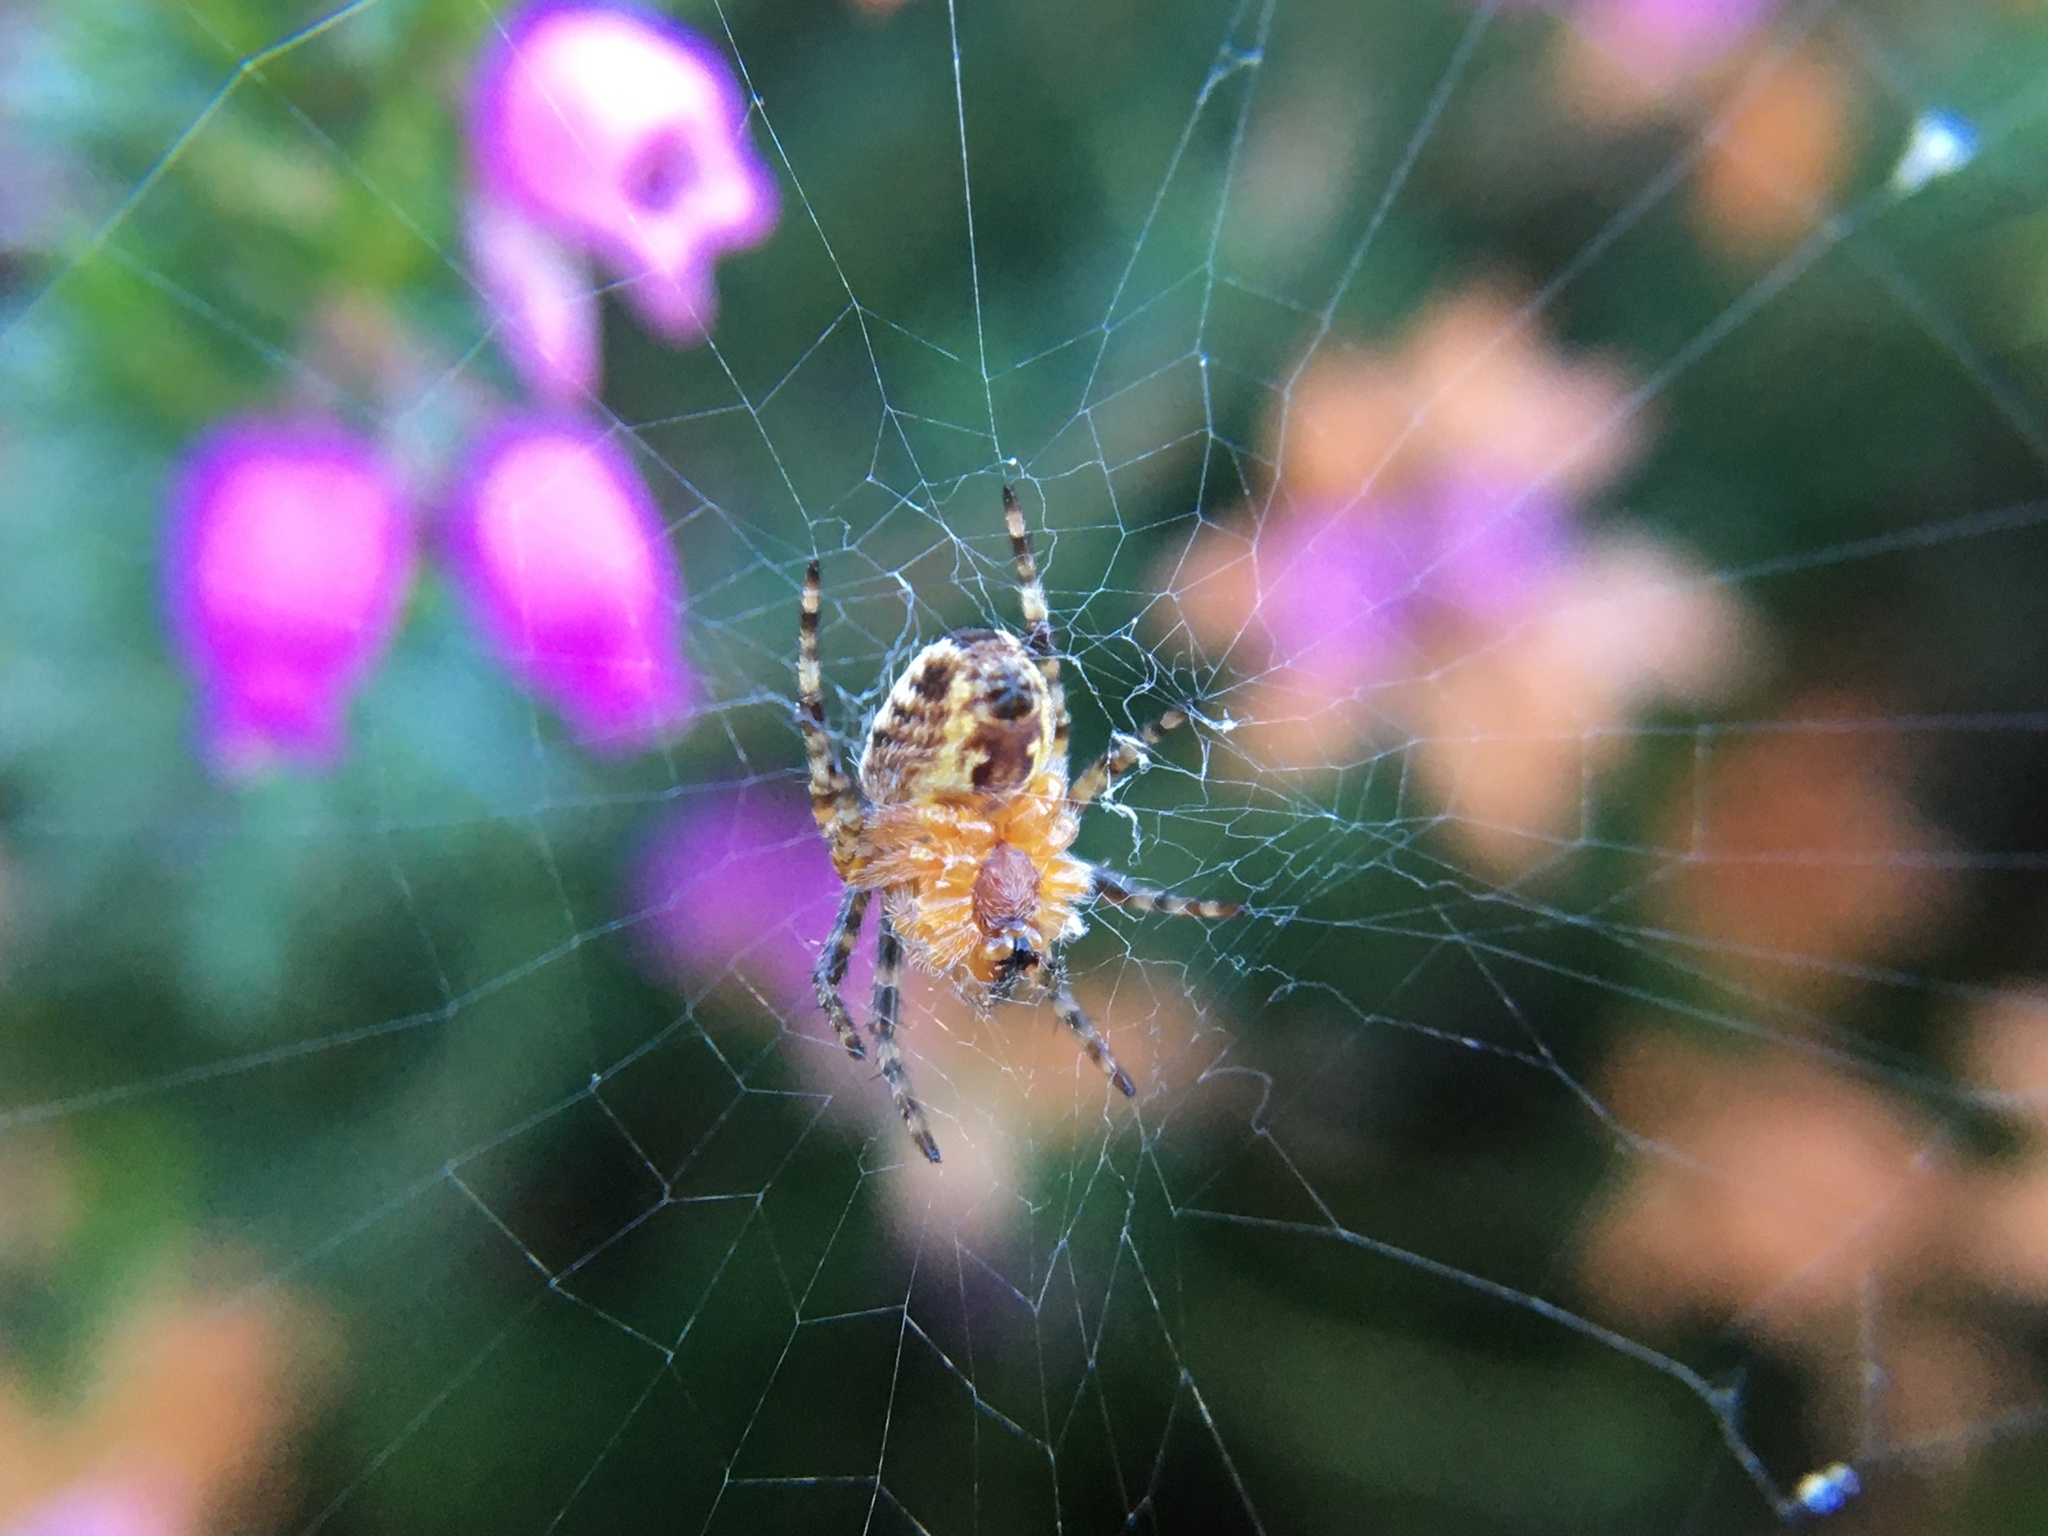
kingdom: Animalia
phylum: Arthropoda
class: Arachnida
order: Araneae
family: Araneidae
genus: Araneus
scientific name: Araneus diadematus
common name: Cross orbweaver
